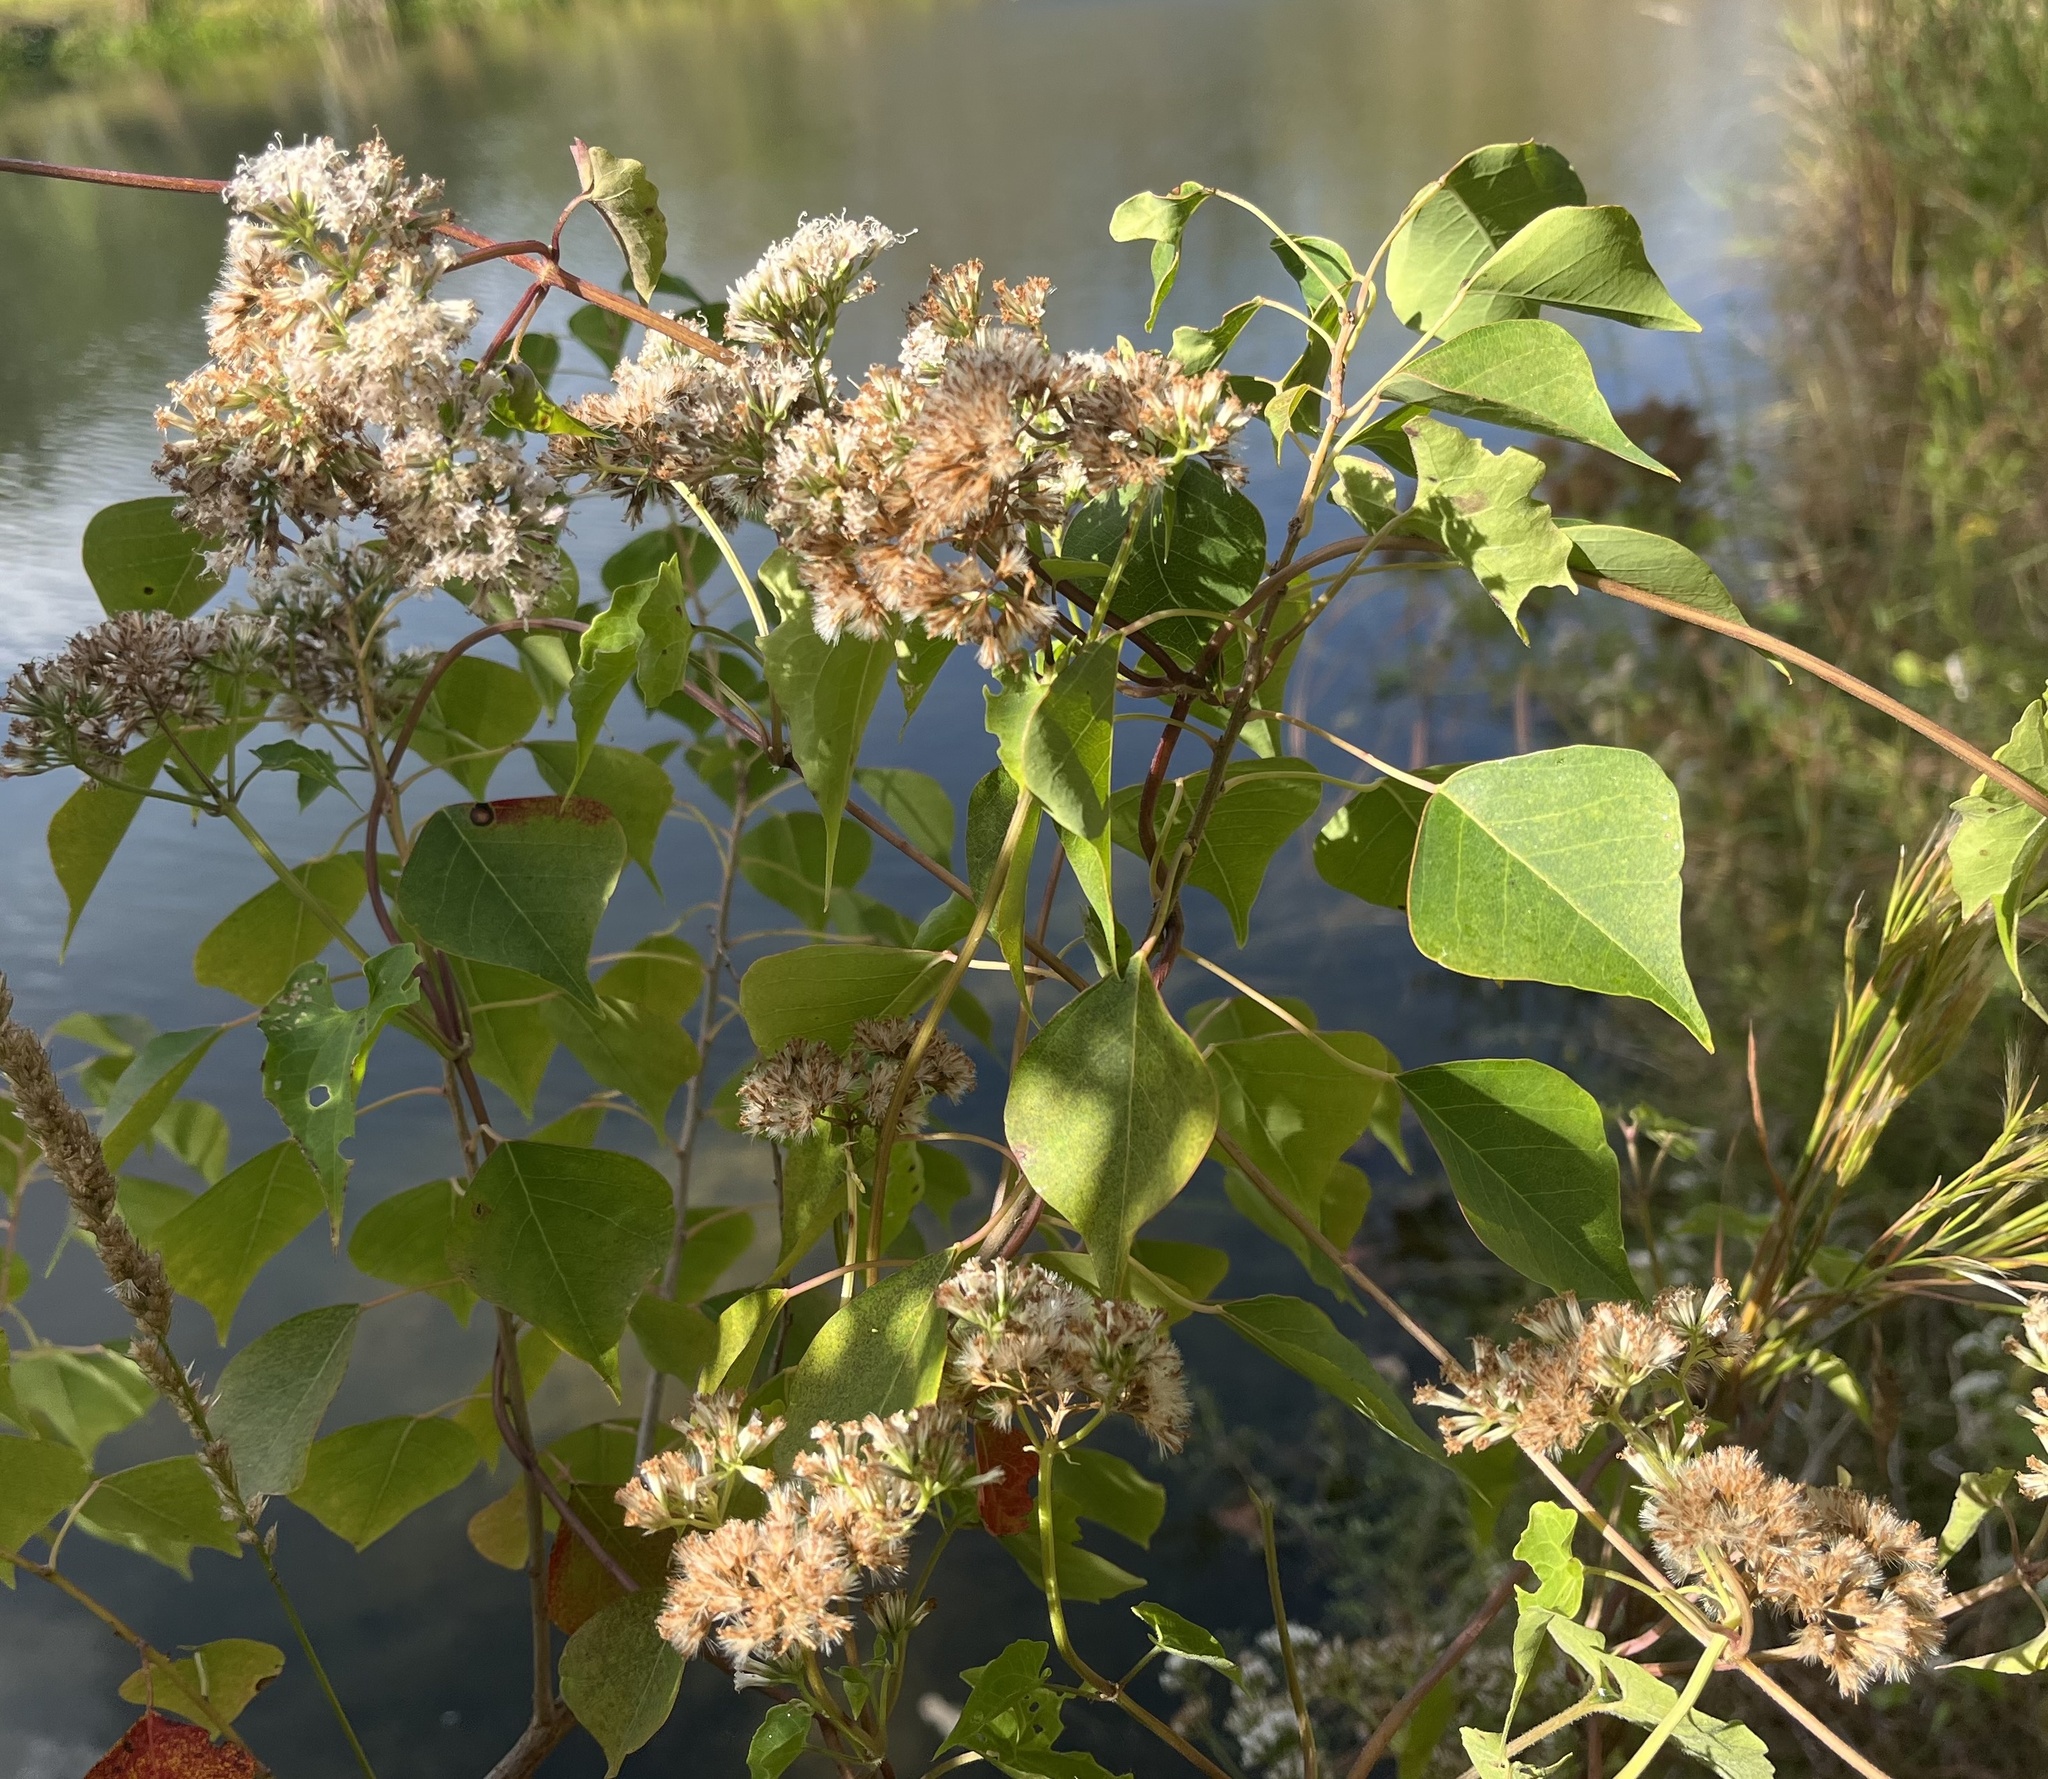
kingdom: Plantae
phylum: Tracheophyta
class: Magnoliopsida
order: Asterales
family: Asteraceae
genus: Mikania
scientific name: Mikania scandens
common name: Climbing hempvine
